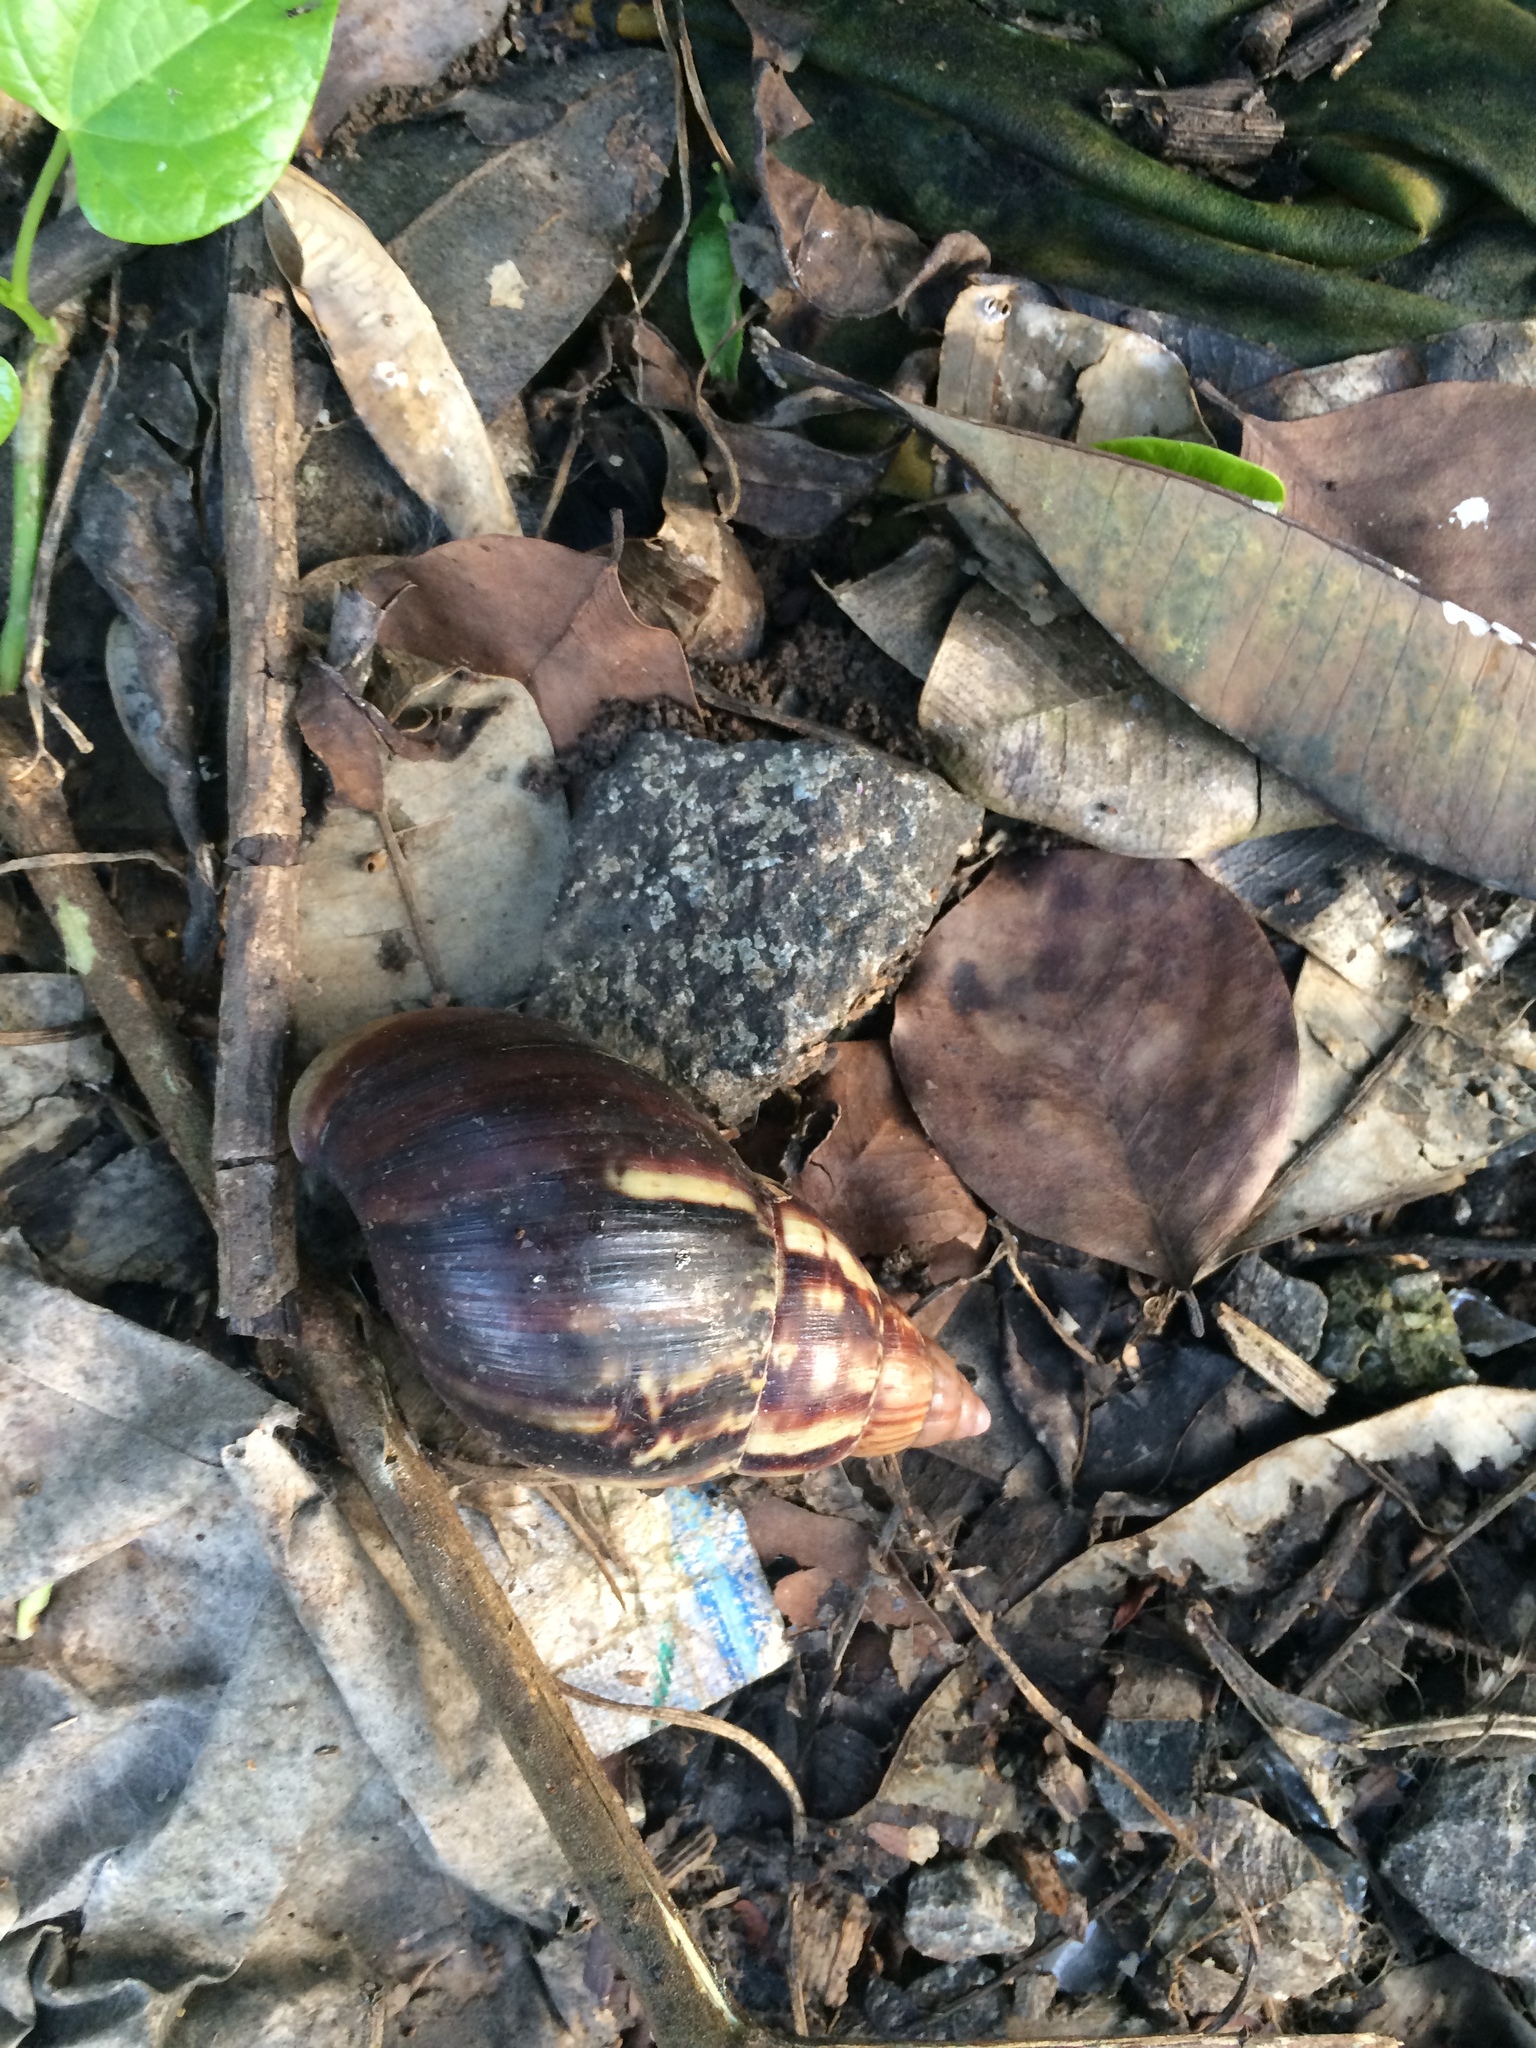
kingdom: Animalia
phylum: Mollusca
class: Gastropoda
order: Stylommatophora
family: Achatinidae
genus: Lissachatina
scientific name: Lissachatina fulica
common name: Giant african snail
